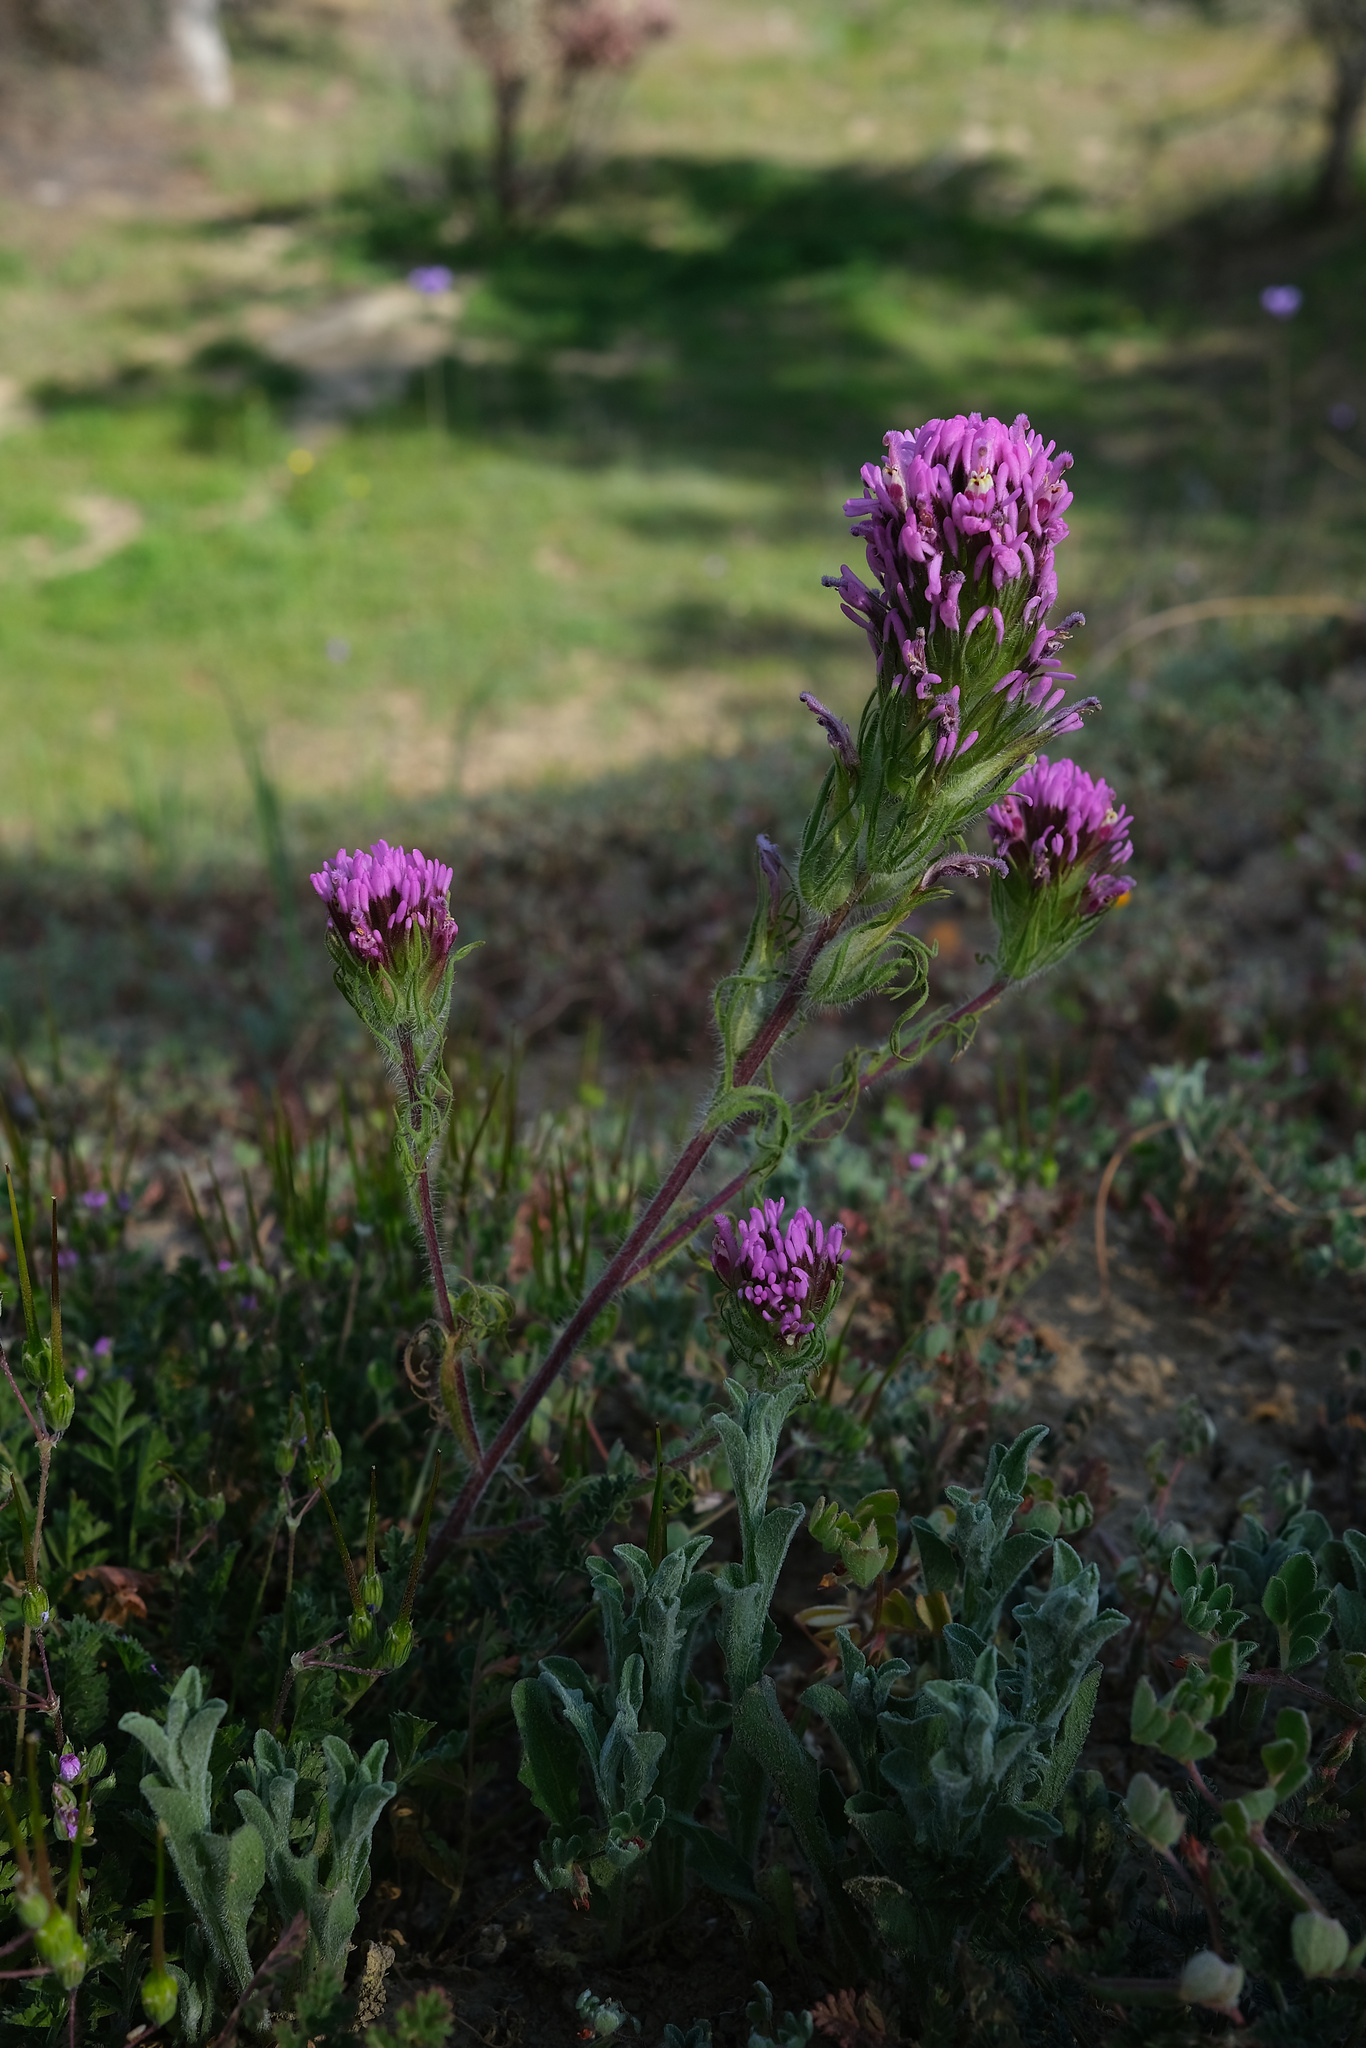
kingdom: Plantae
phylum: Tracheophyta
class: Magnoliopsida
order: Lamiales
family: Orobanchaceae
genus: Castilleja
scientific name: Castilleja exserta
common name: Purple owl-clover
